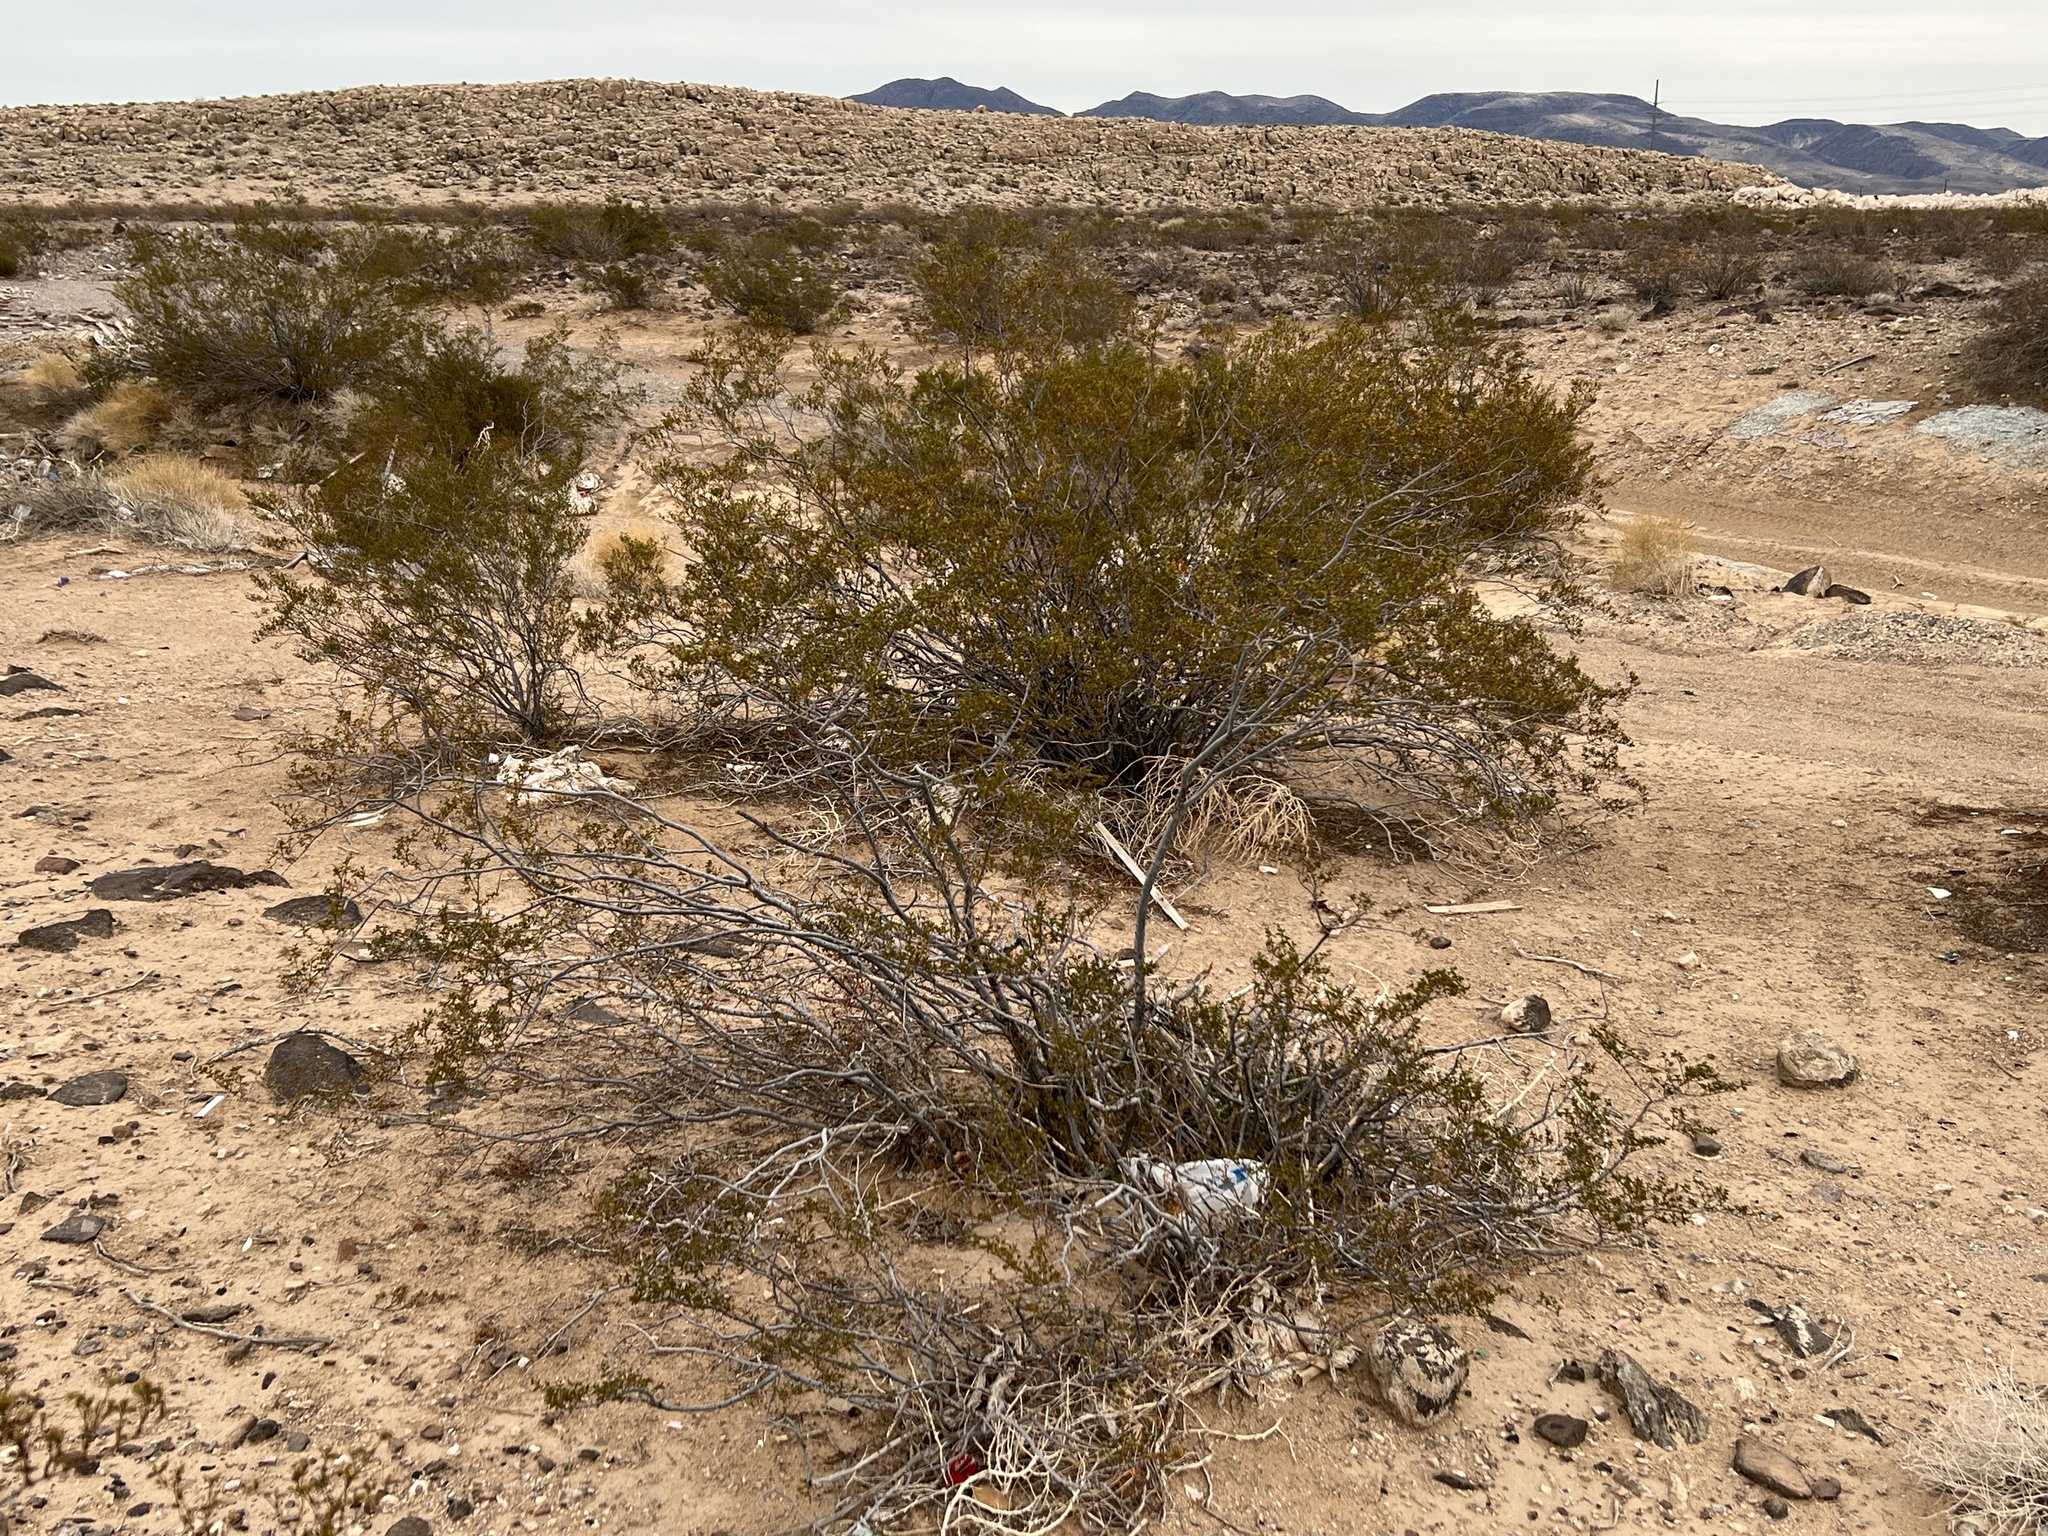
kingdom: Plantae
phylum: Tracheophyta
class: Magnoliopsida
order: Zygophyllales
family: Zygophyllaceae
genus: Larrea
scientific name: Larrea tridentata
